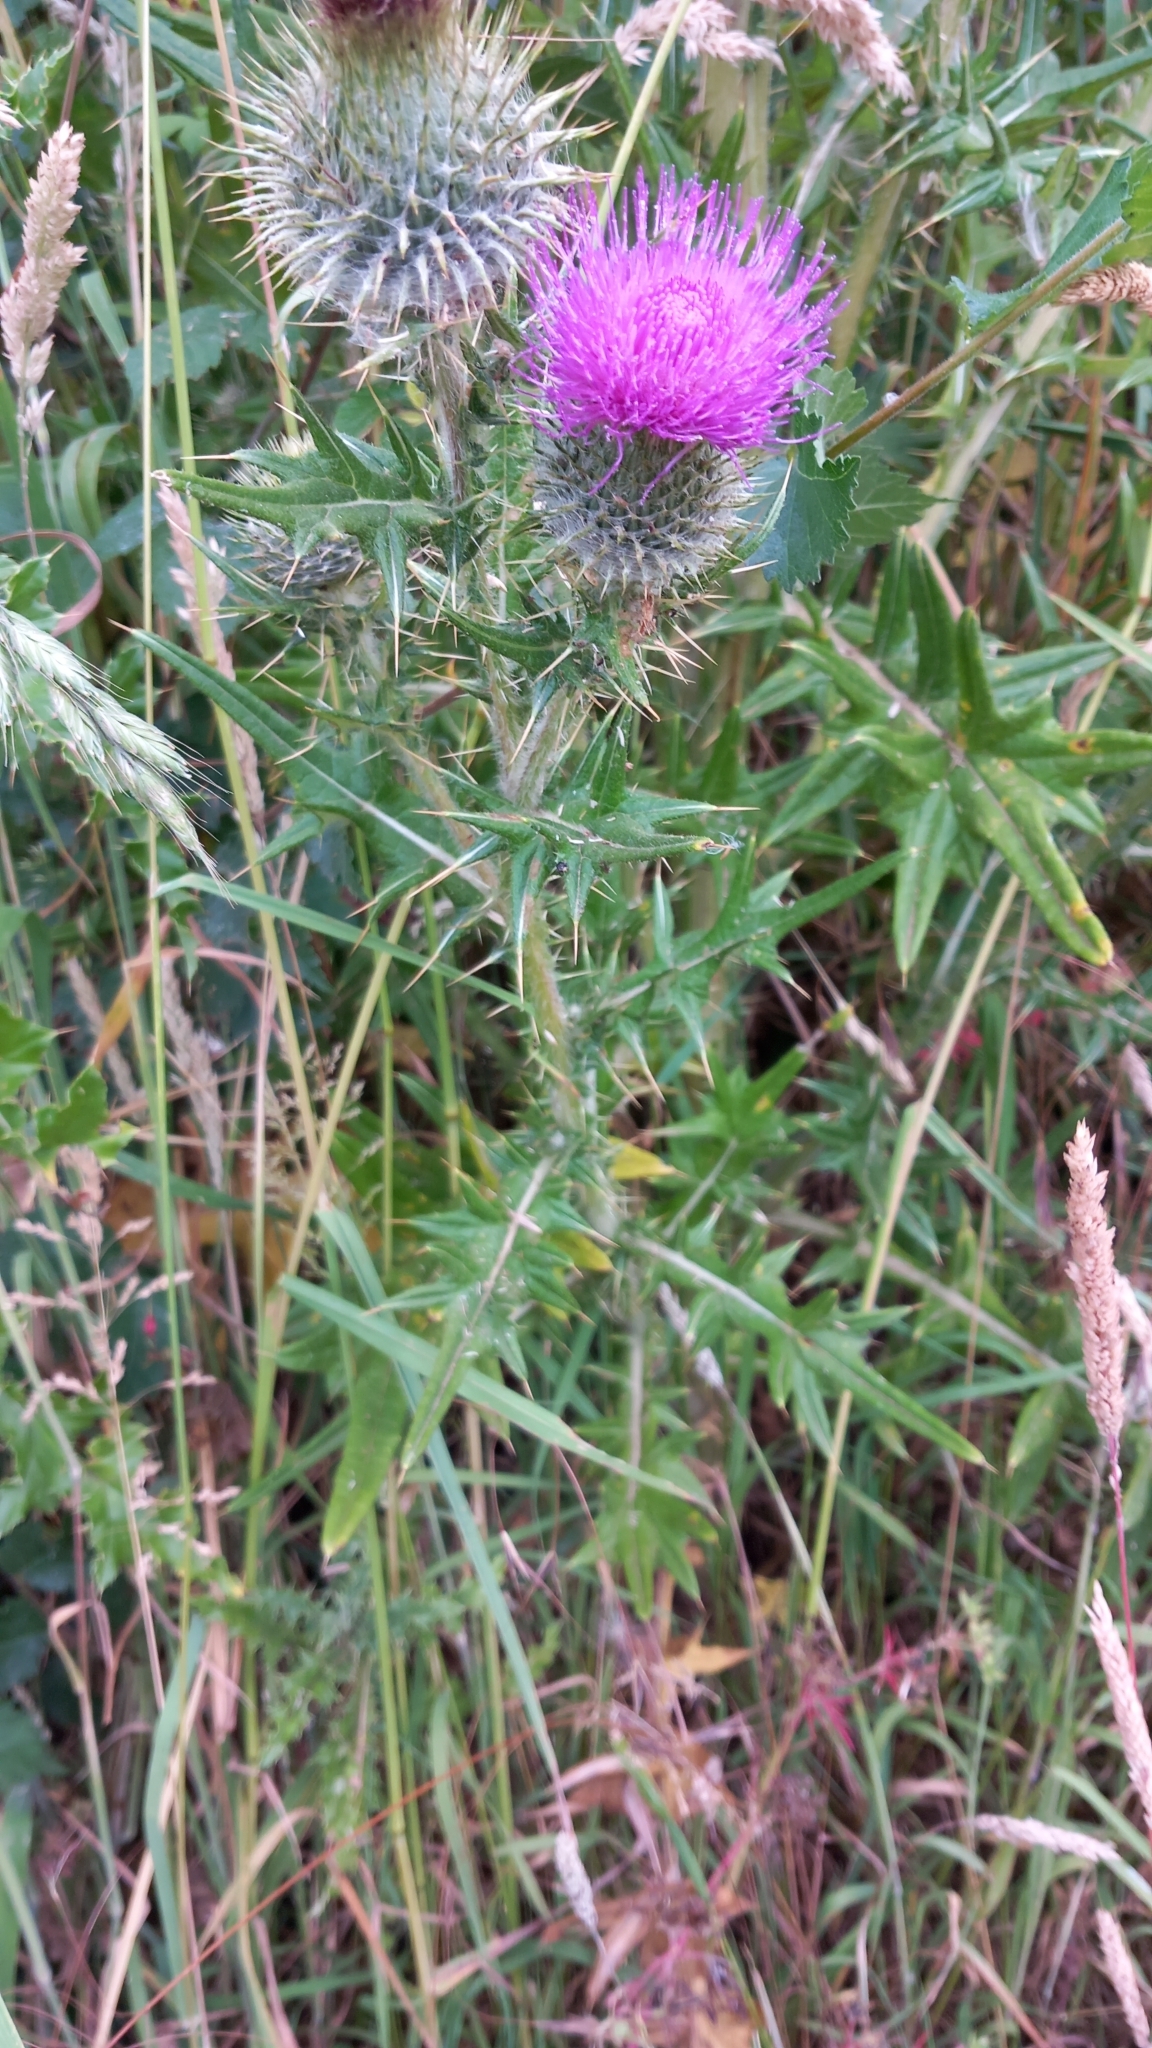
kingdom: Plantae
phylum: Tracheophyta
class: Magnoliopsida
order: Asterales
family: Asteraceae
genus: Cirsium
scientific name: Cirsium vulgare
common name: Bull thistle
